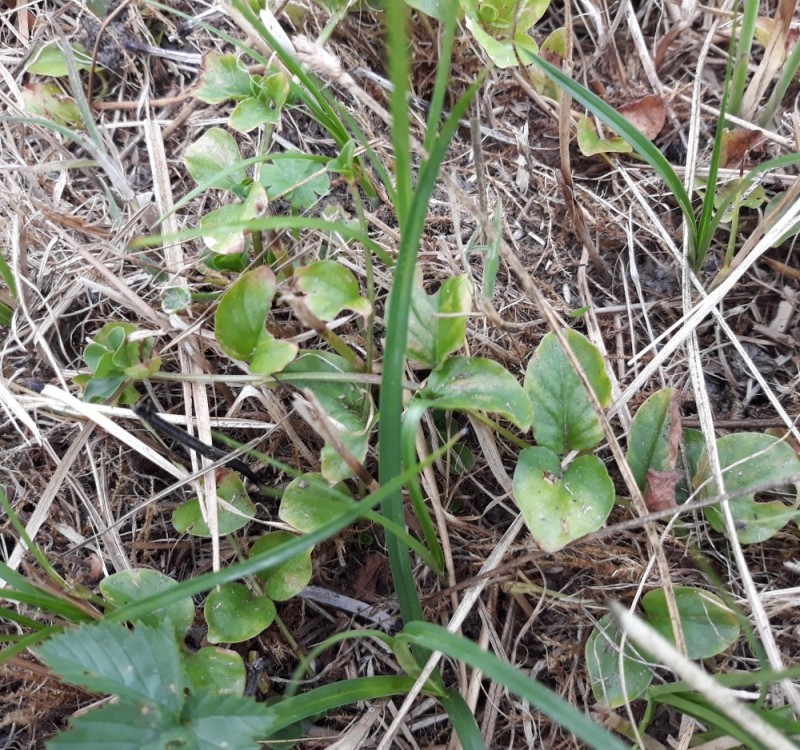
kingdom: Plantae
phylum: Tracheophyta
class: Magnoliopsida
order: Ericales
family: Primulaceae
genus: Lysimachia
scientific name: Lysimachia nummularia
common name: Moneywort
